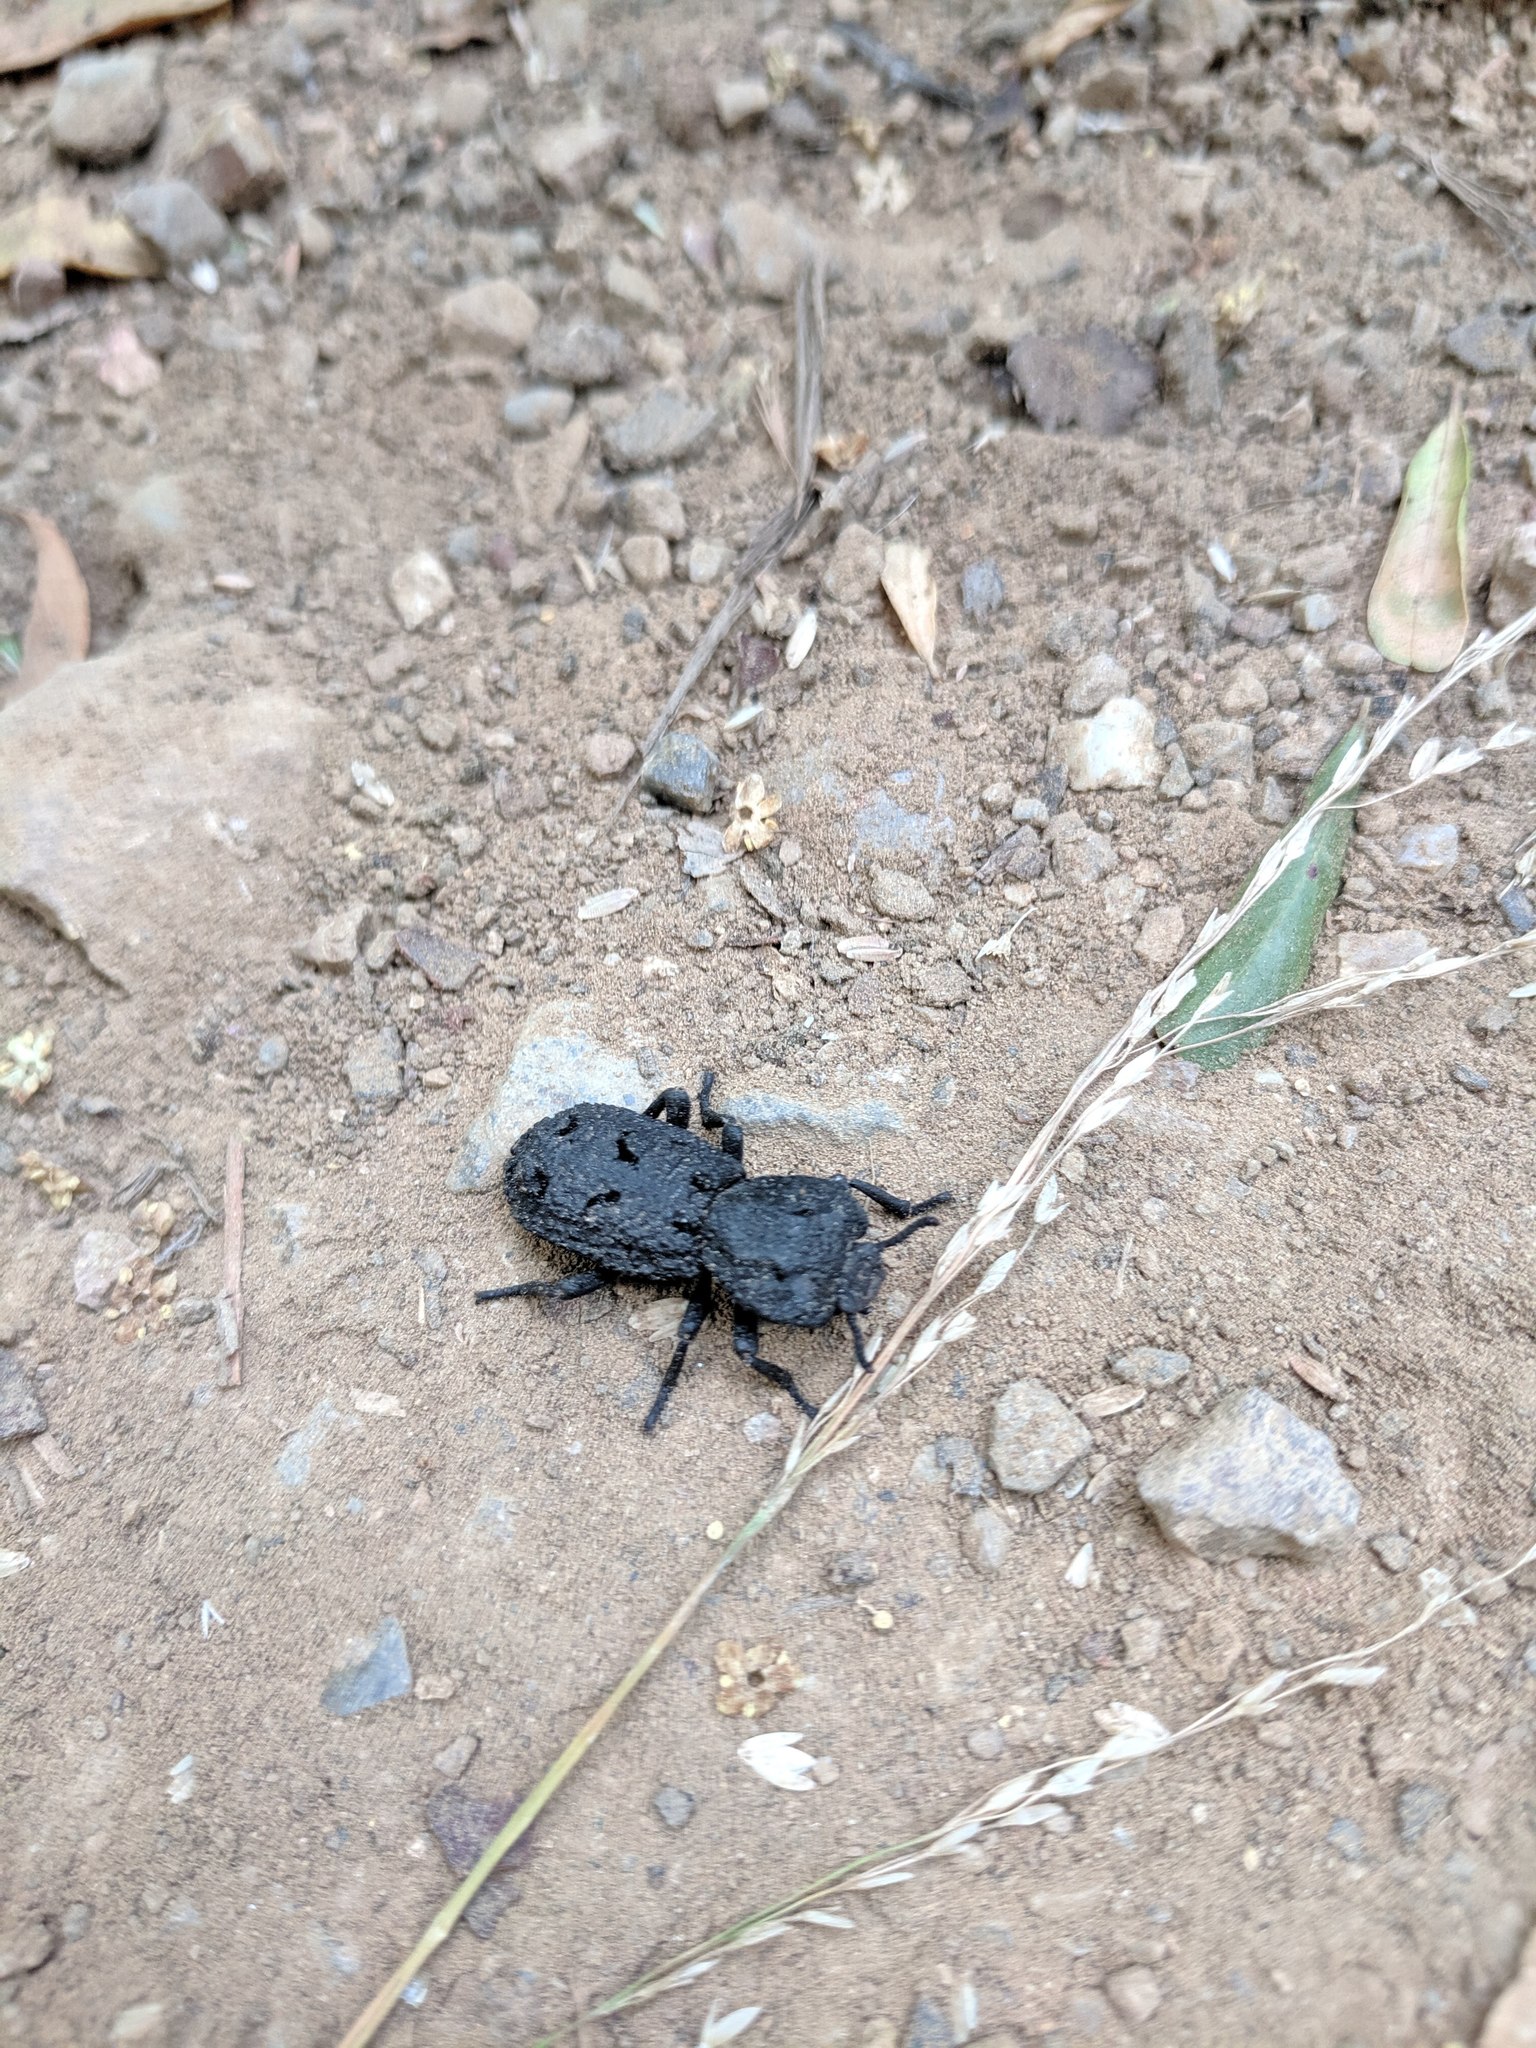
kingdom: Animalia
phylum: Arthropoda
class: Insecta
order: Coleoptera
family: Zopheridae
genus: Phloeodes
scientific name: Phloeodes diabolicus
